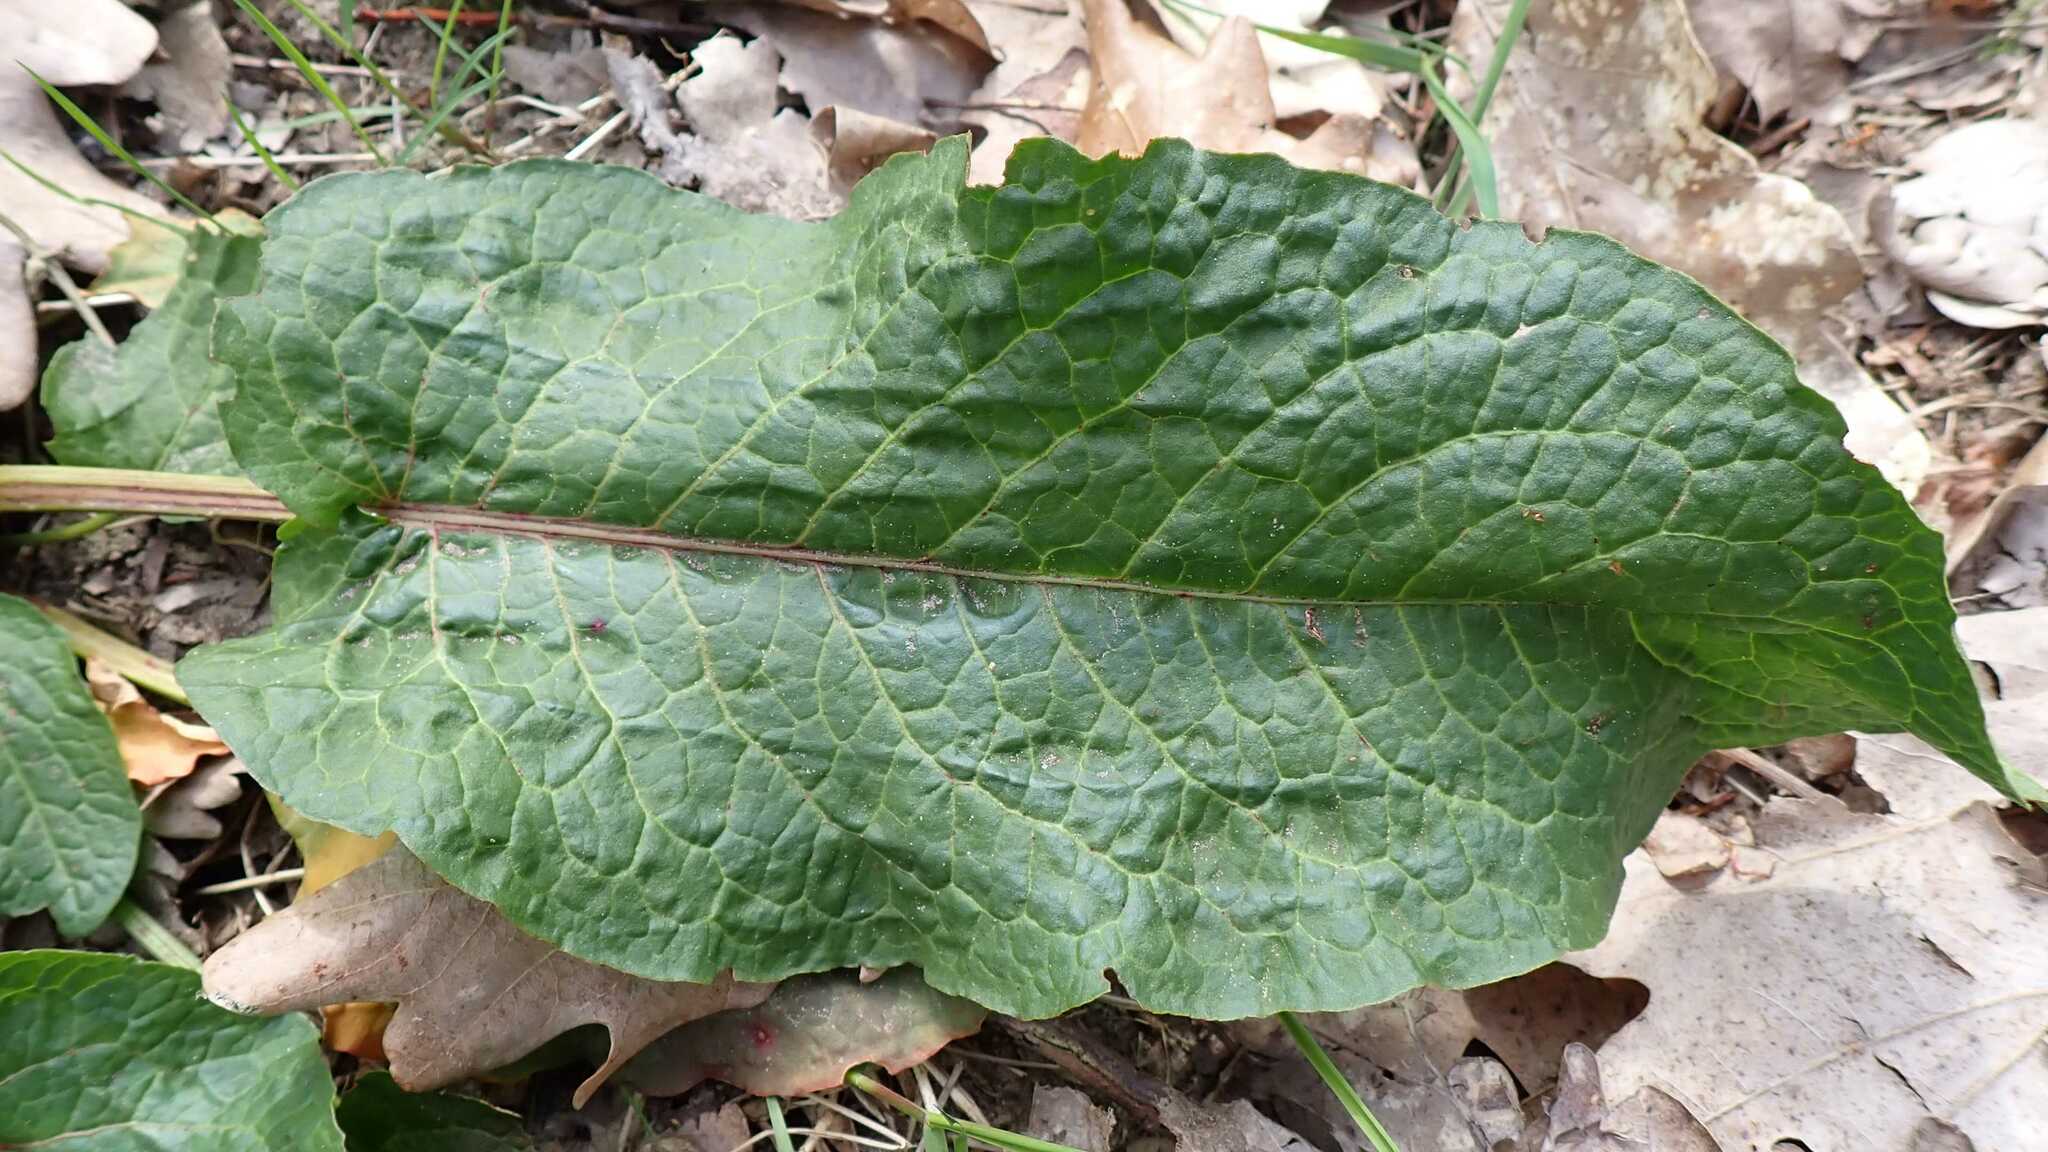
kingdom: Plantae
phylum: Tracheophyta
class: Magnoliopsida
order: Caryophyllales
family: Polygonaceae
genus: Rumex
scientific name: Rumex obtusifolius
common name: Bitter dock
